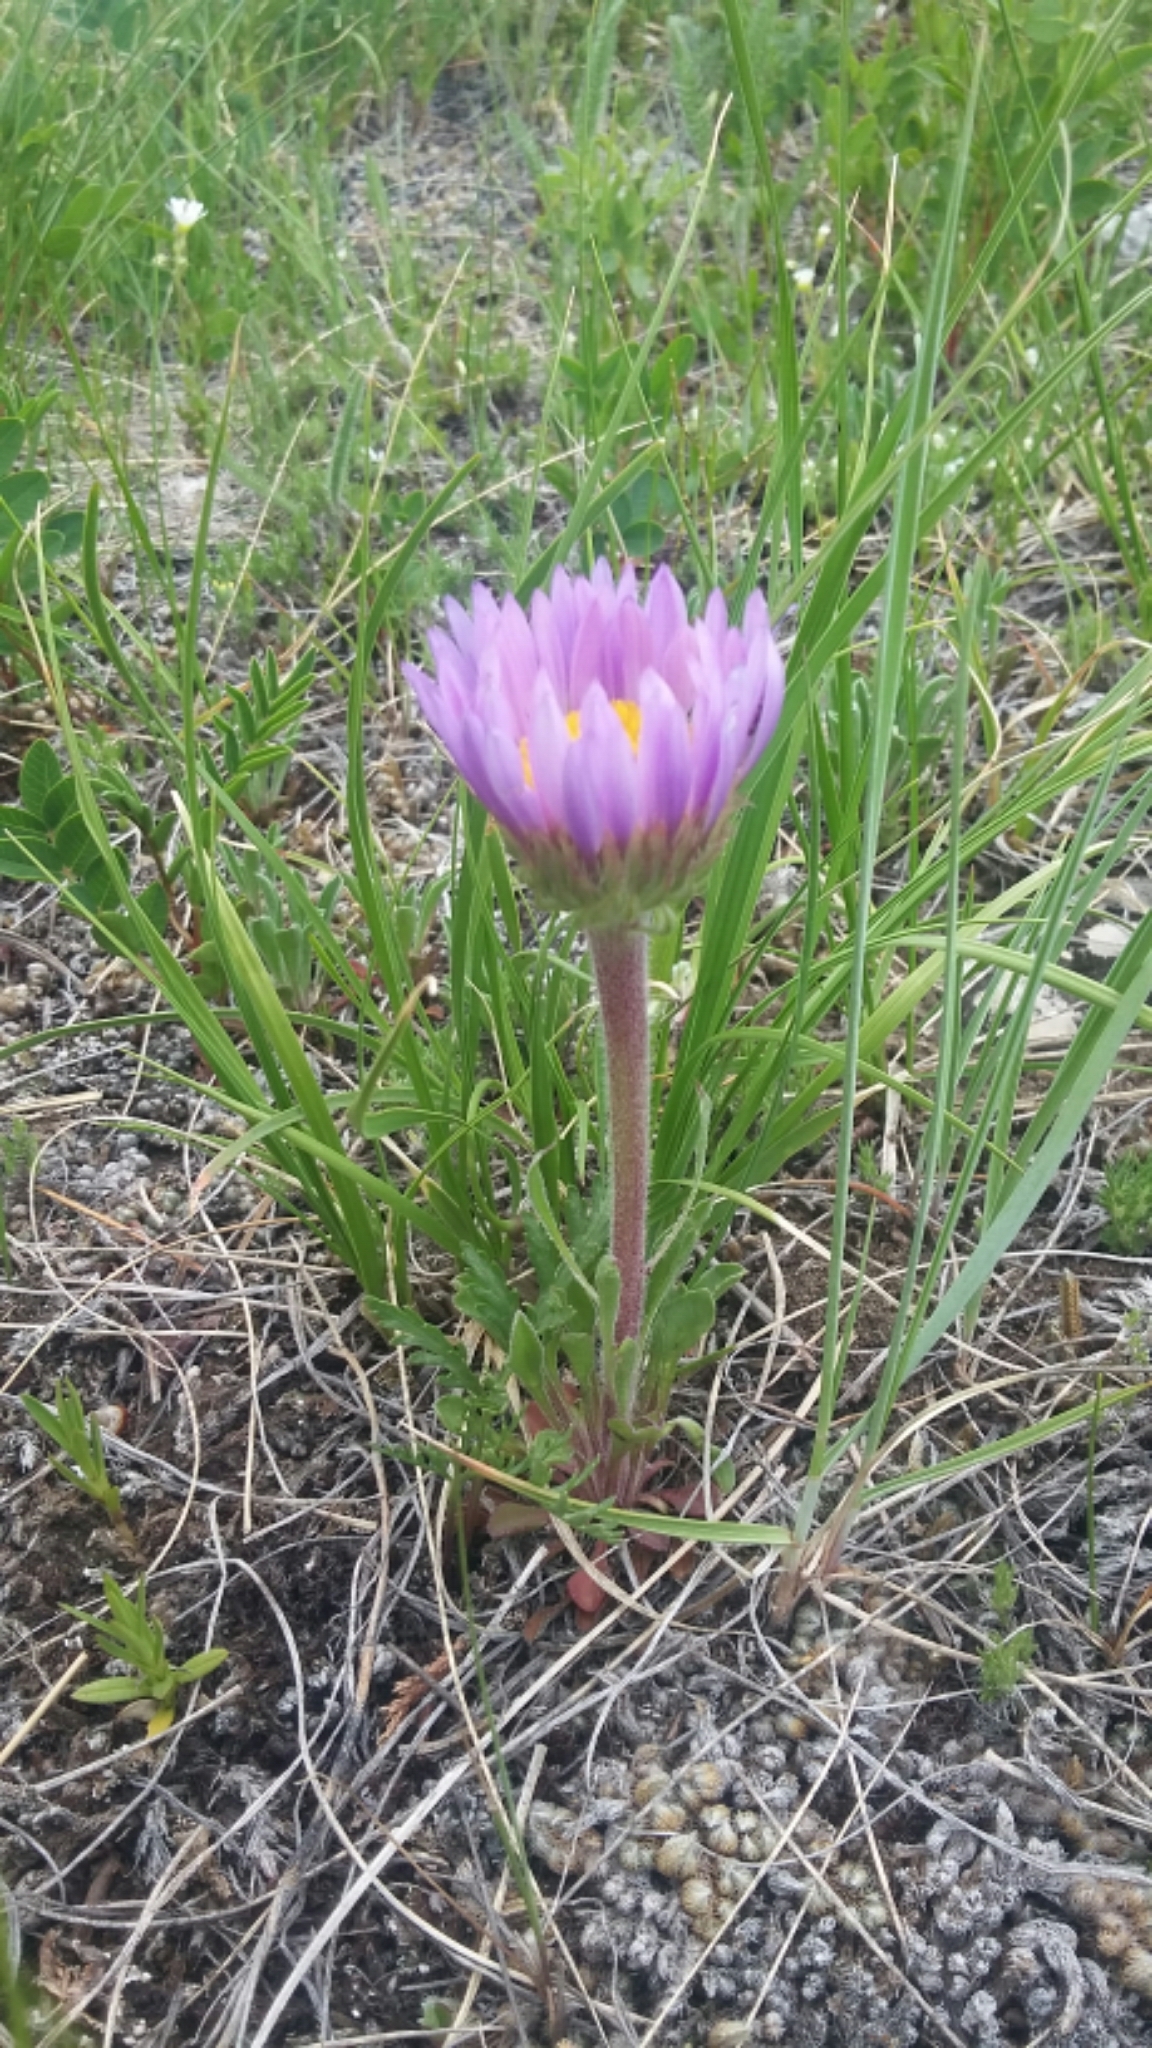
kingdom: Plantae
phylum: Tracheophyta
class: Magnoliopsida
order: Asterales
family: Asteraceae
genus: Townsendia
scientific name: Townsendia parryi
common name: Parry's townsend daisy
